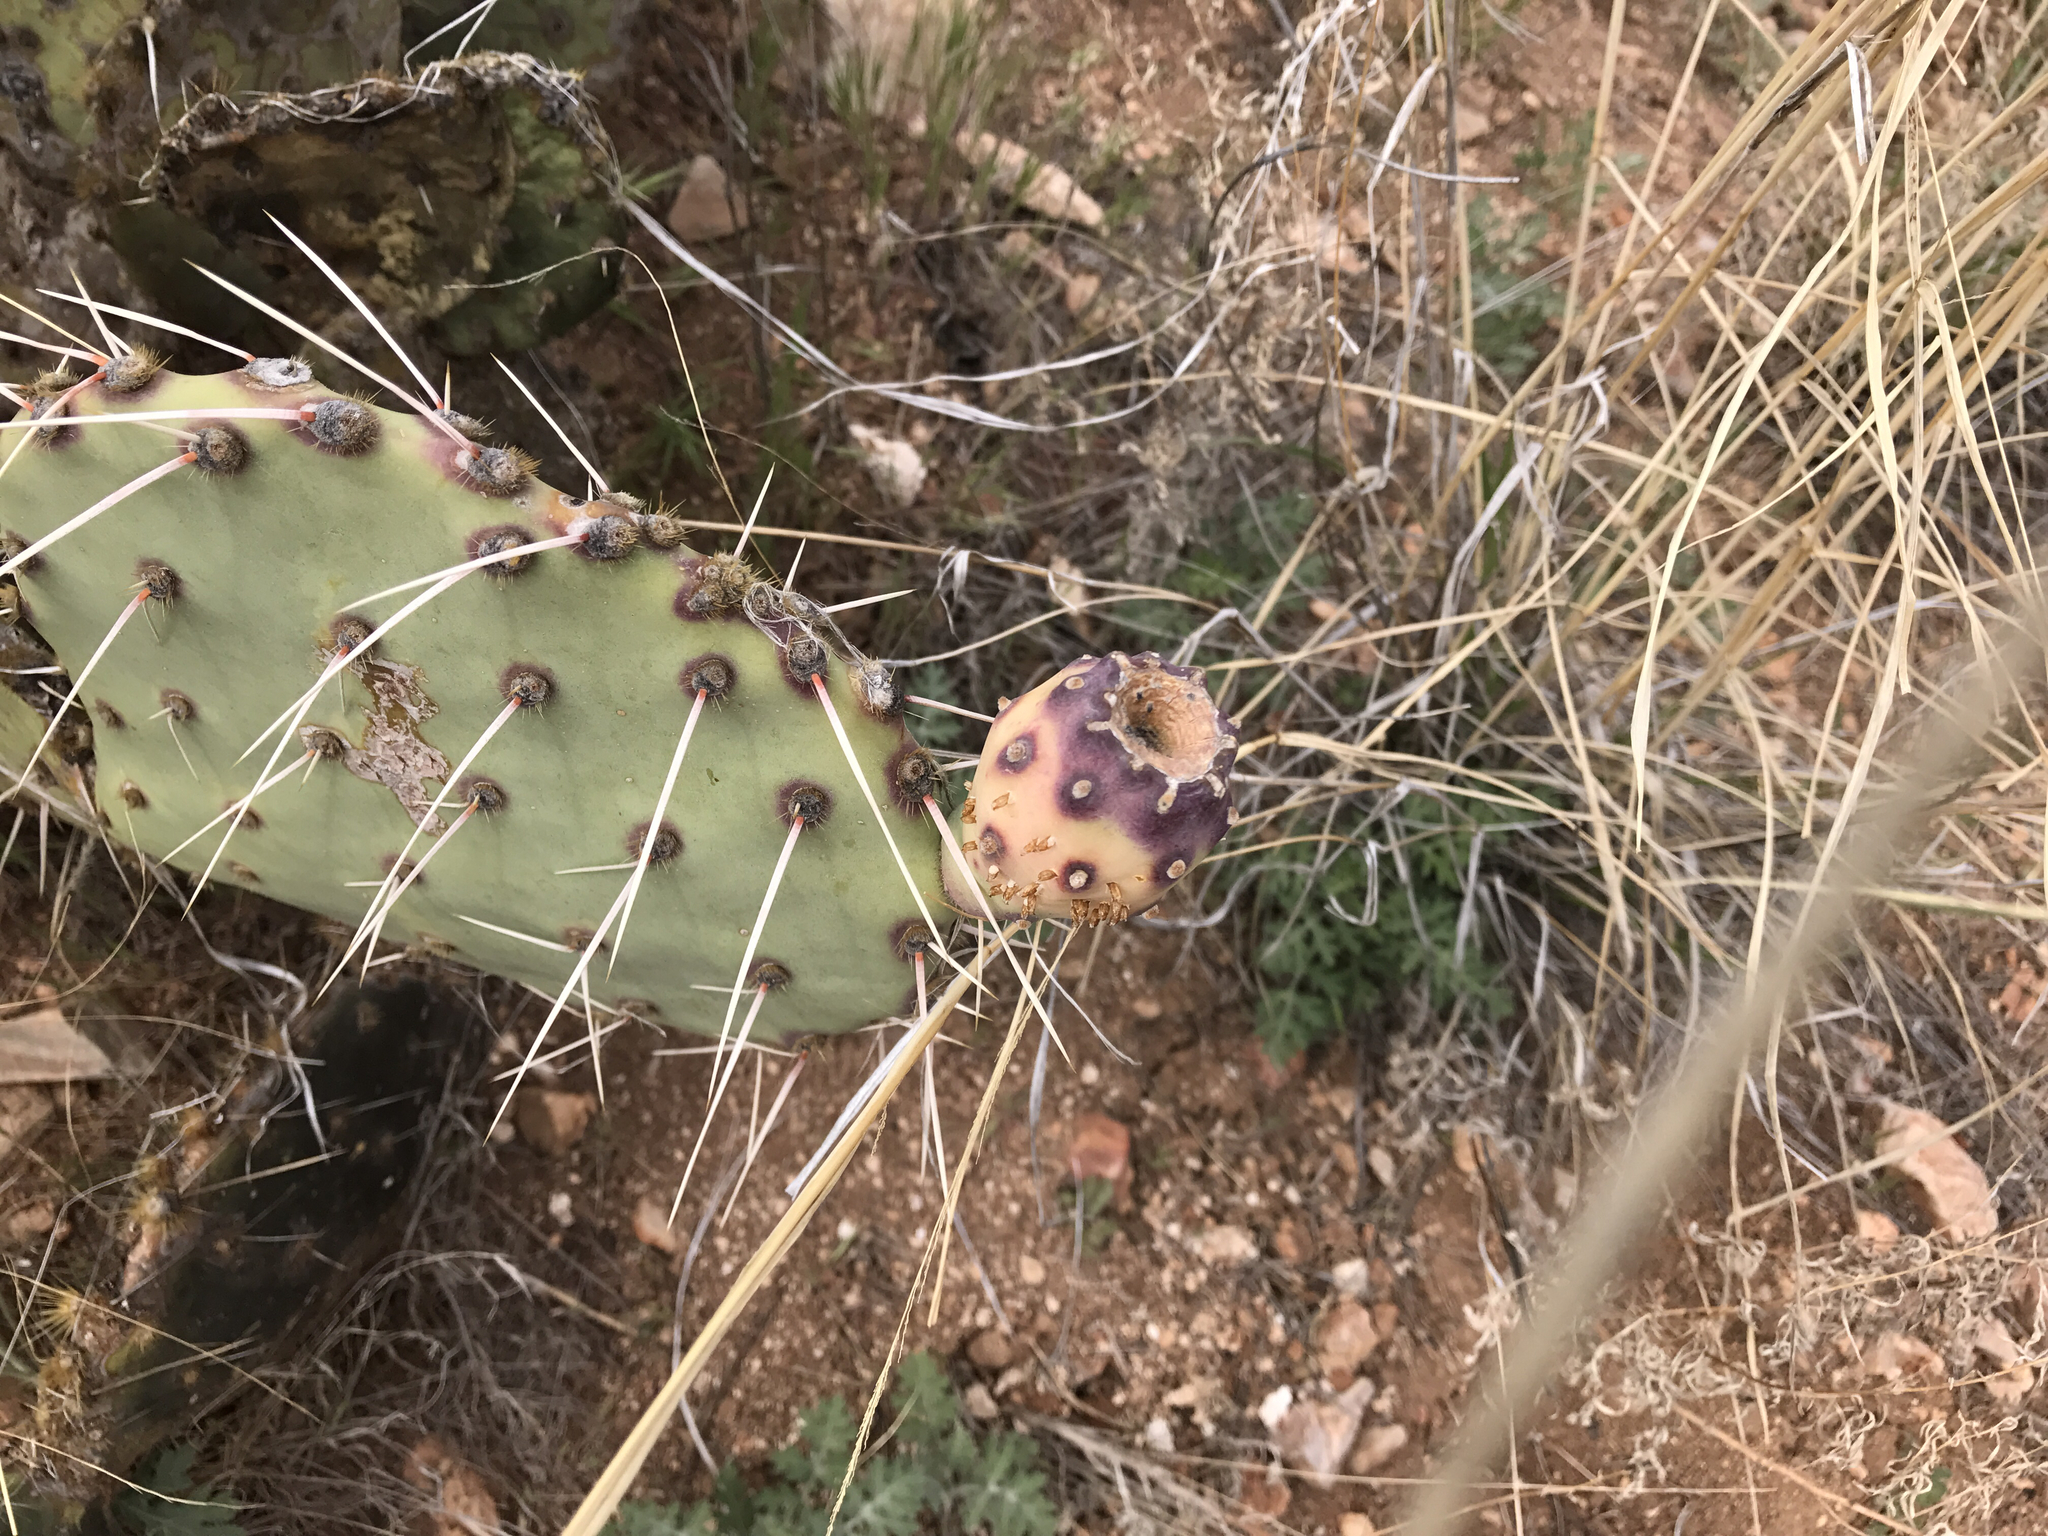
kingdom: Animalia
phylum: Arthropoda
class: Insecta
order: Diptera
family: Cecidomyiidae
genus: Asphondylia
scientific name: Asphondylia betheli
